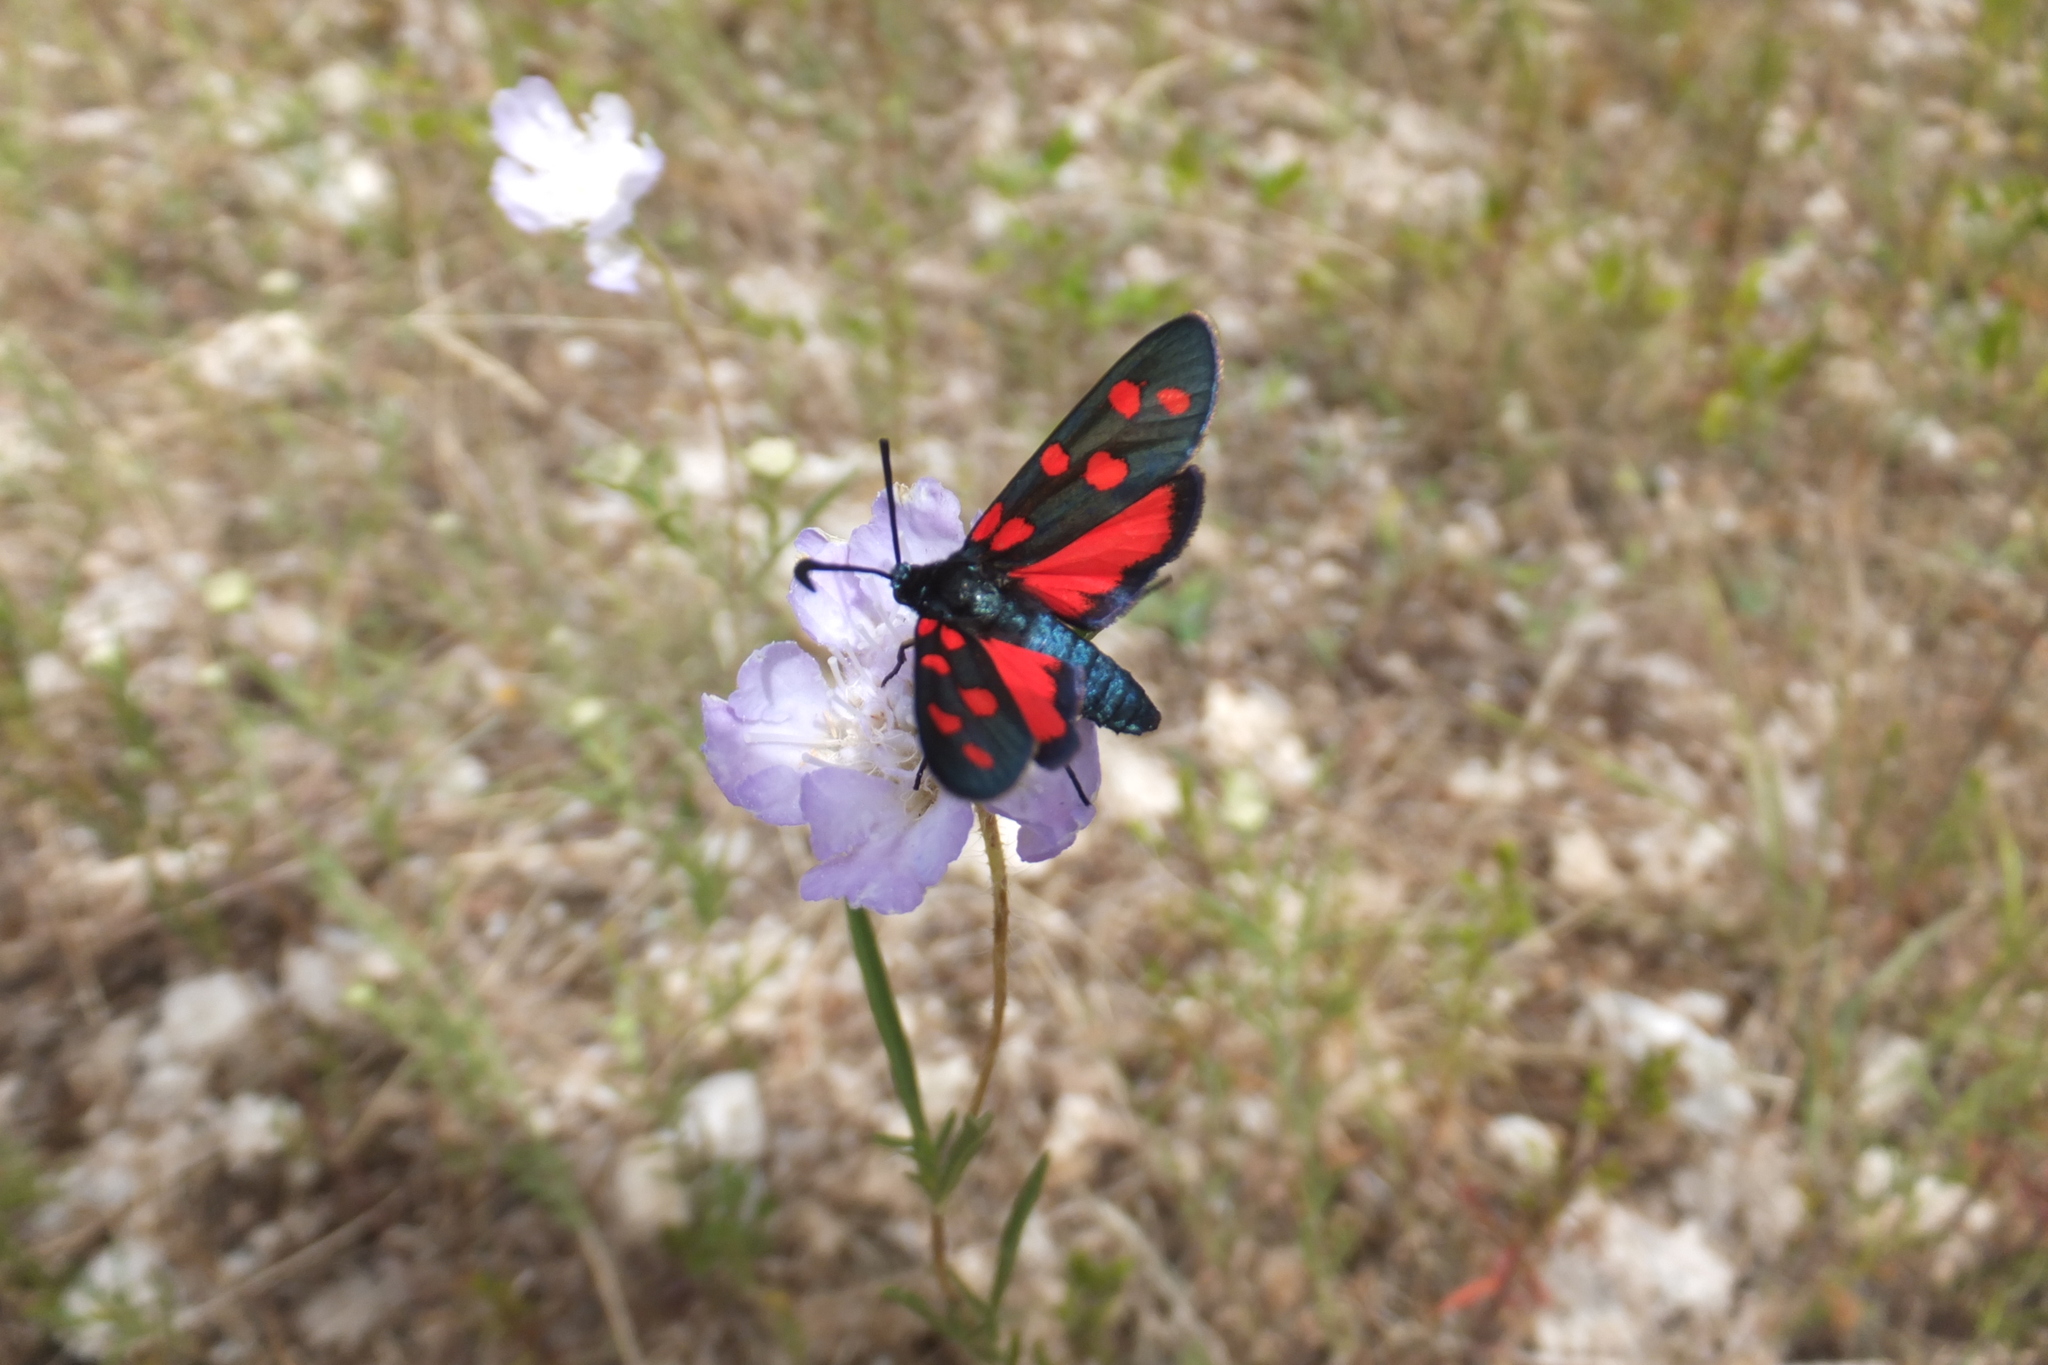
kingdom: Animalia
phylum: Arthropoda
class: Insecta
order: Lepidoptera
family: Zygaenidae
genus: Zygaena
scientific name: Zygaena transalpina
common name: Southern six spot burnet
